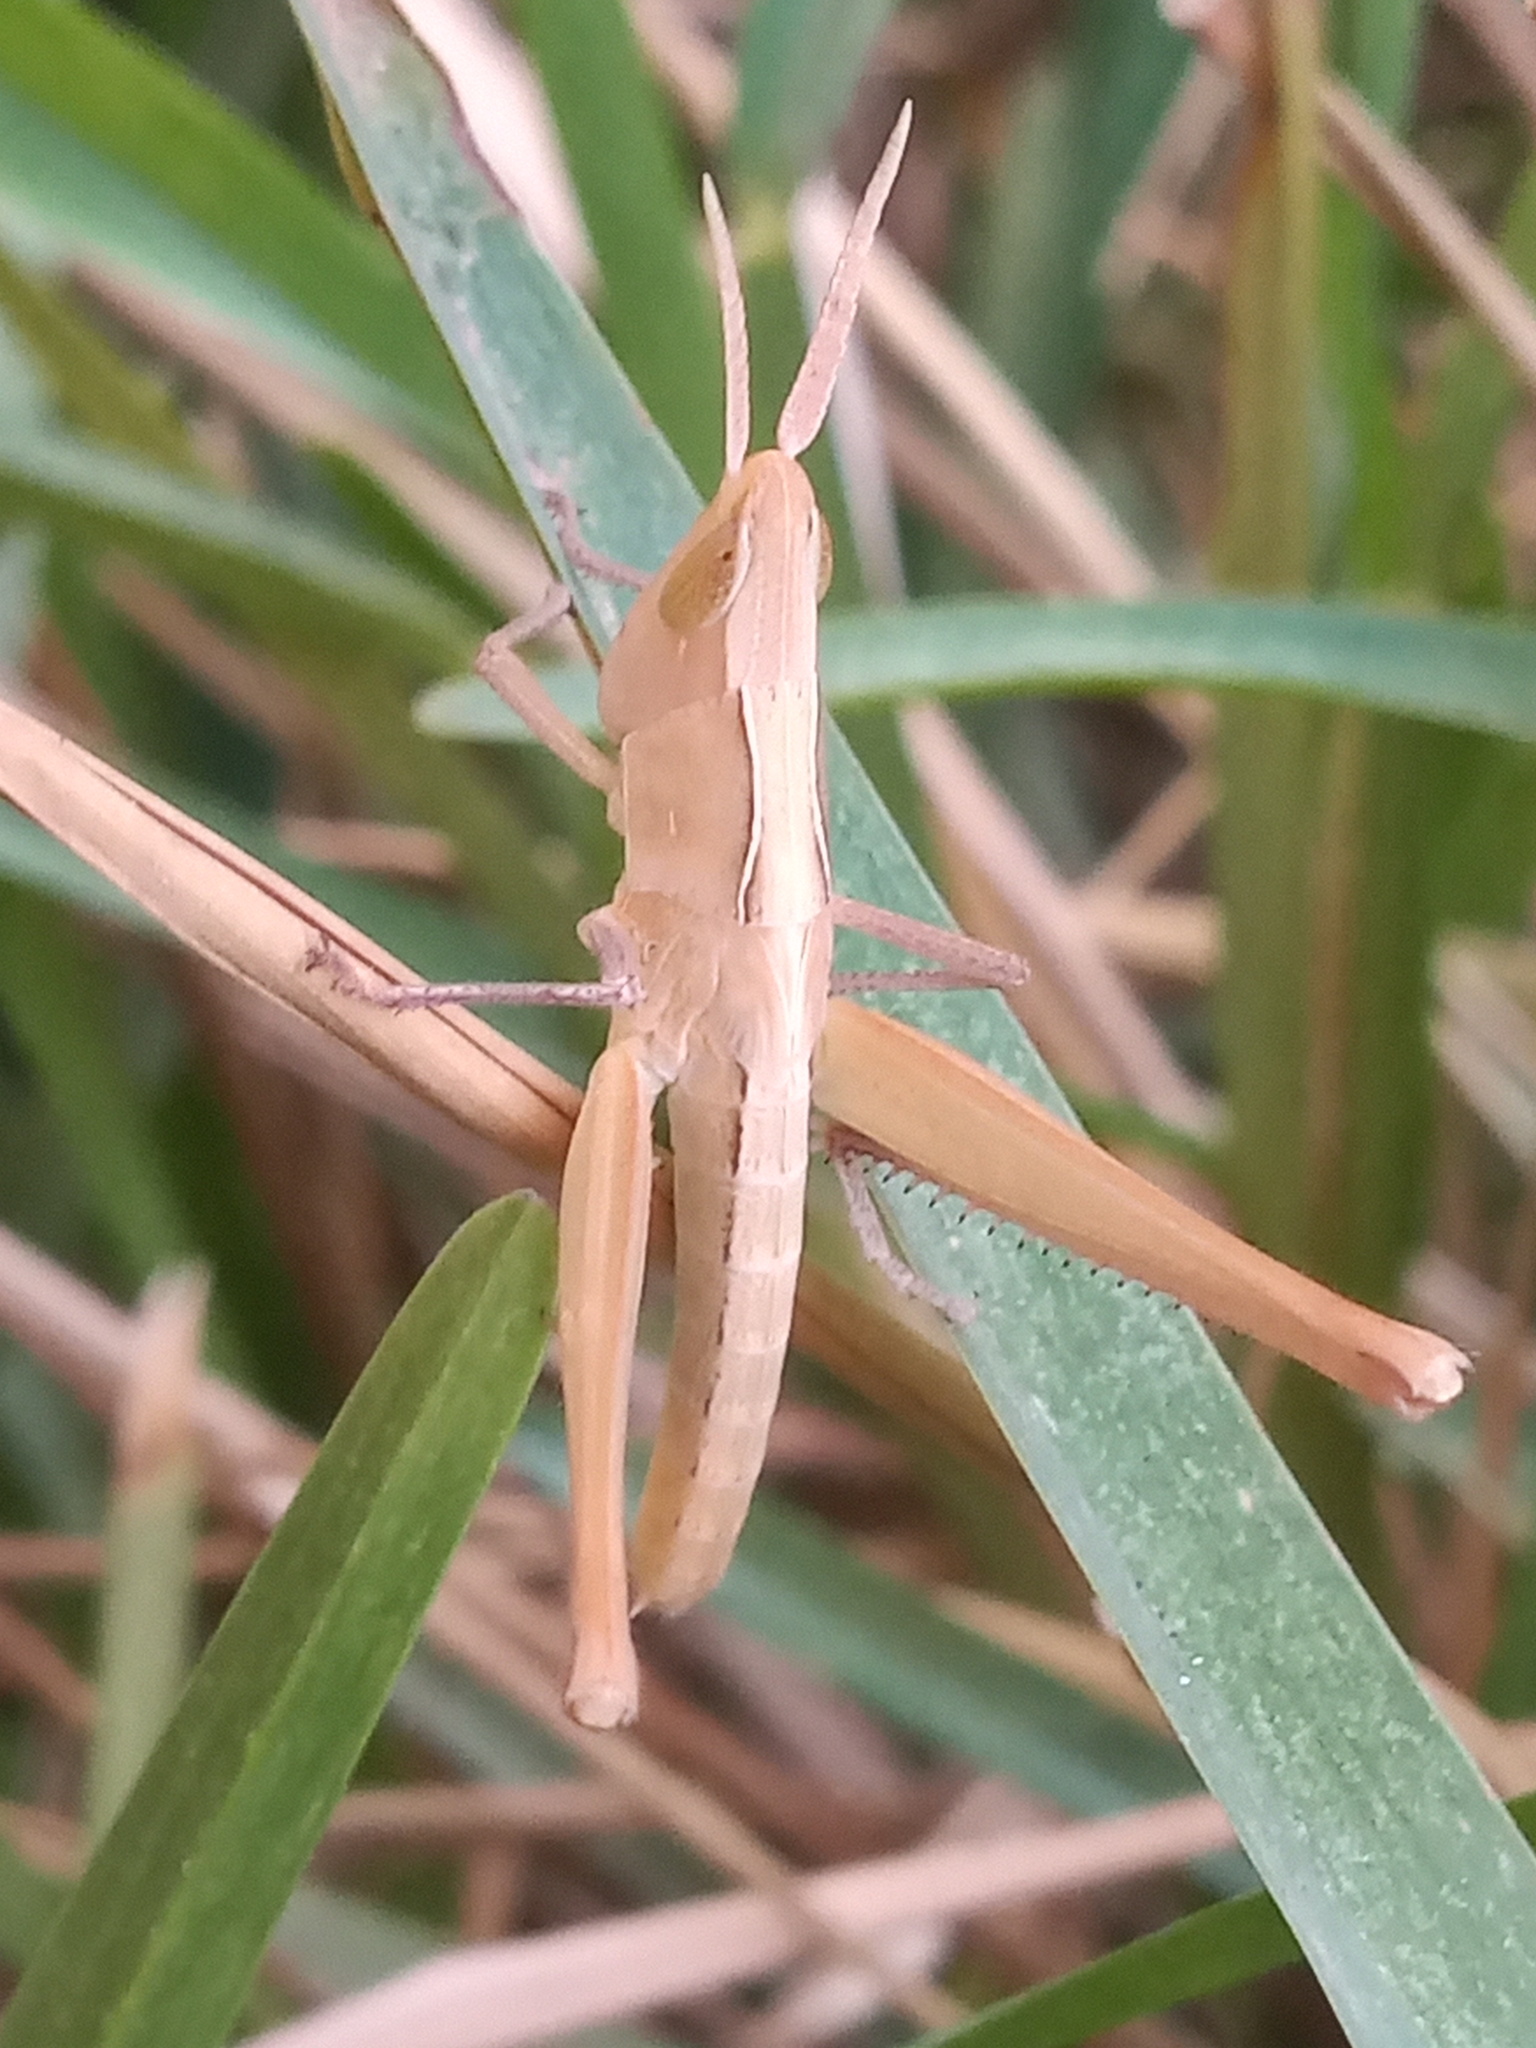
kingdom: Animalia
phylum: Arthropoda
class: Insecta
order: Orthoptera
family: Acrididae
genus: Syrbula
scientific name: Syrbula montezuma
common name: Montezuma's grasshopper
